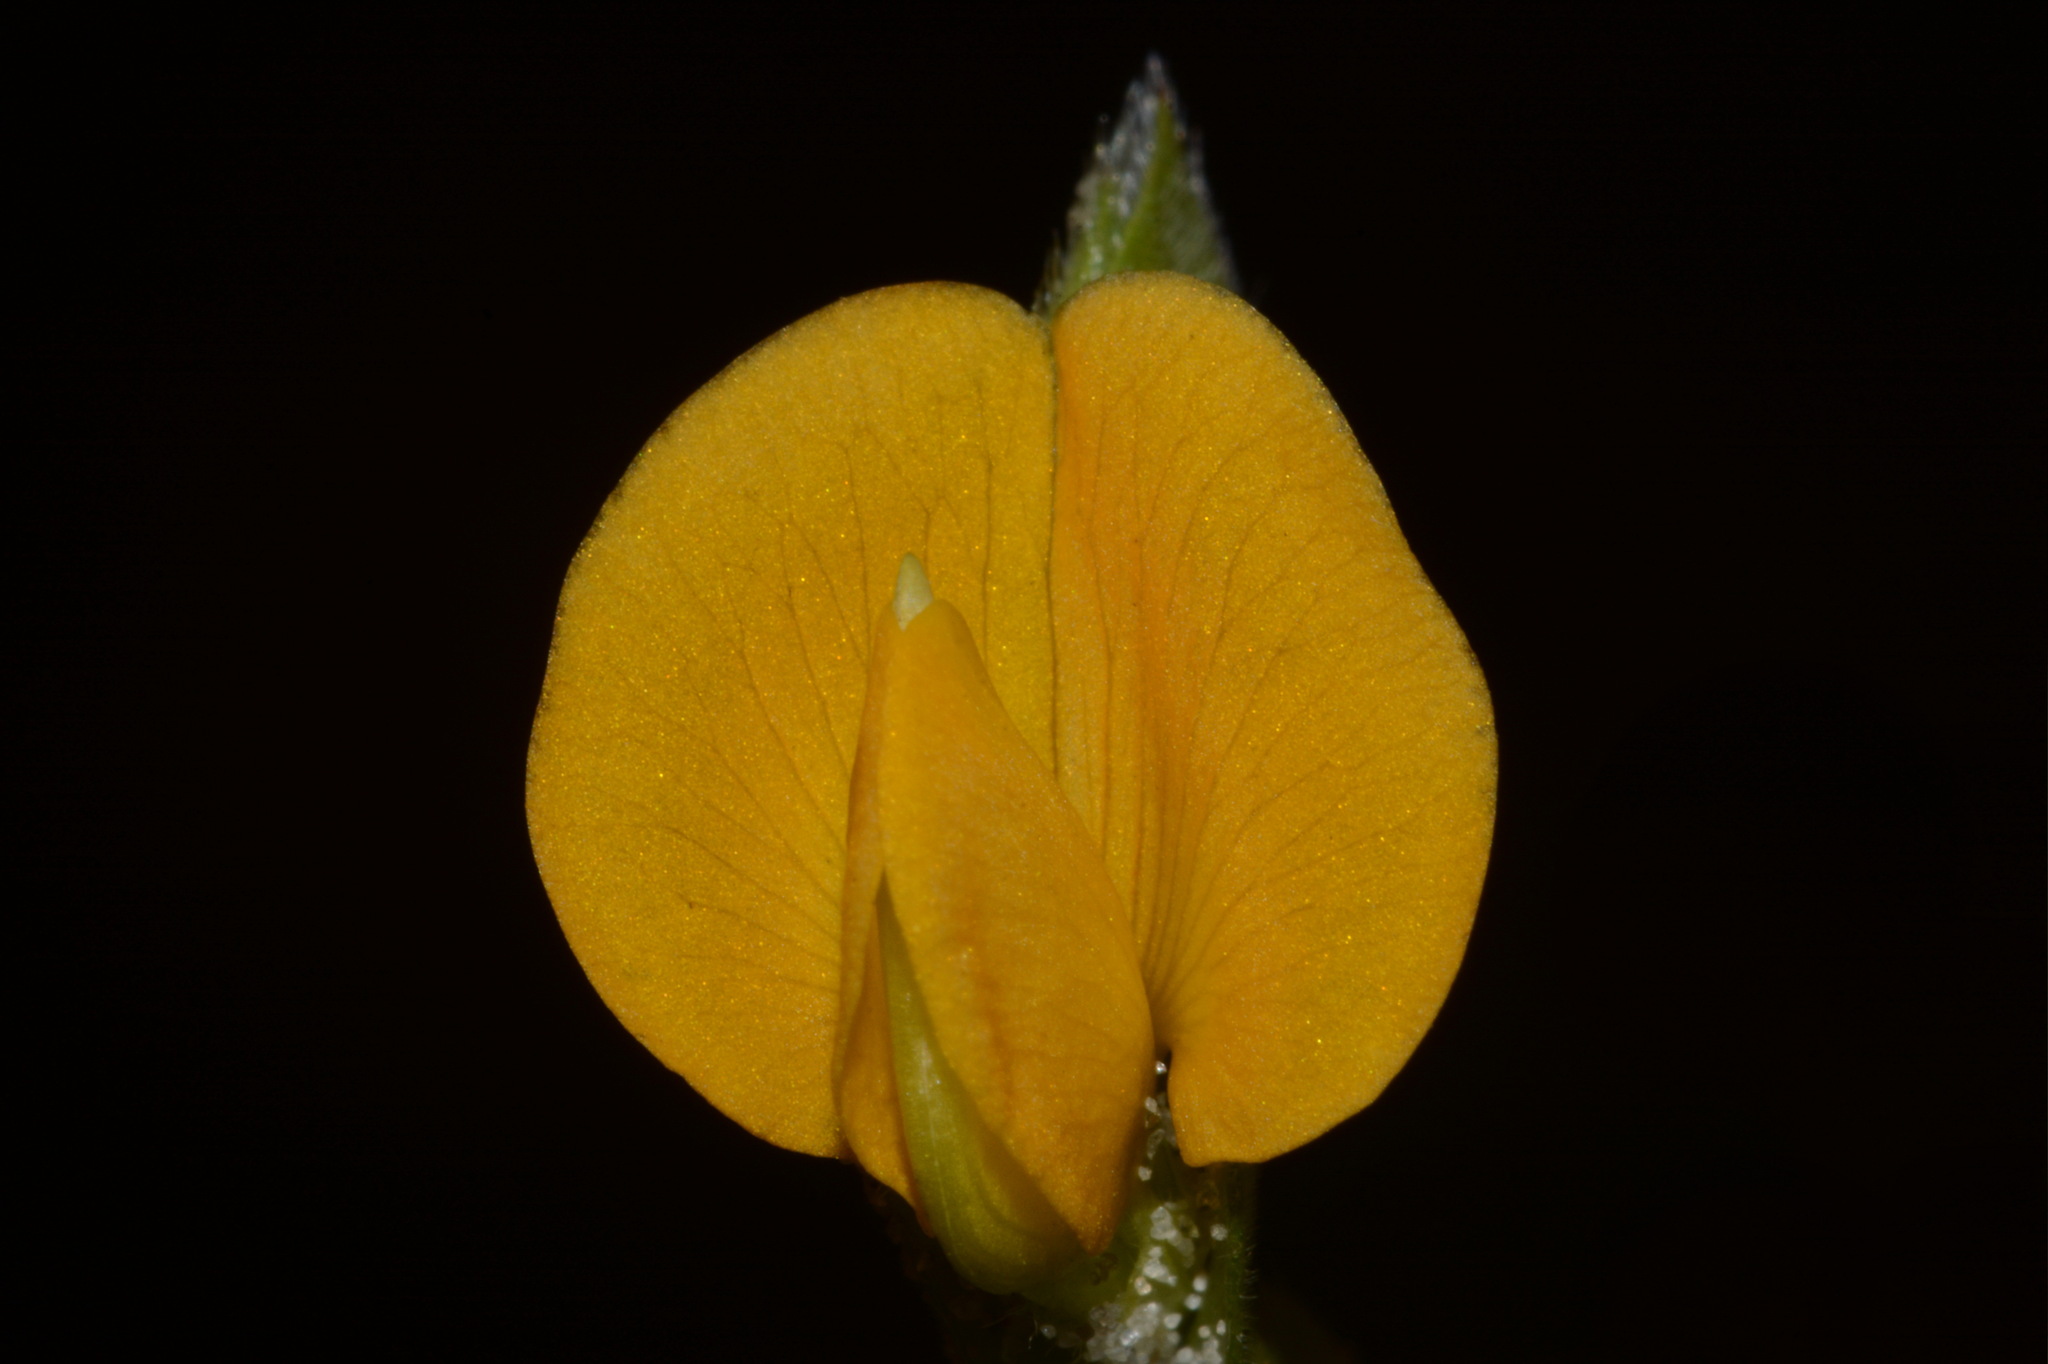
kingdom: Plantae
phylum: Tracheophyta
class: Magnoliopsida
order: Fabales
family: Fabaceae
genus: Zornia
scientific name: Zornia bracteata
